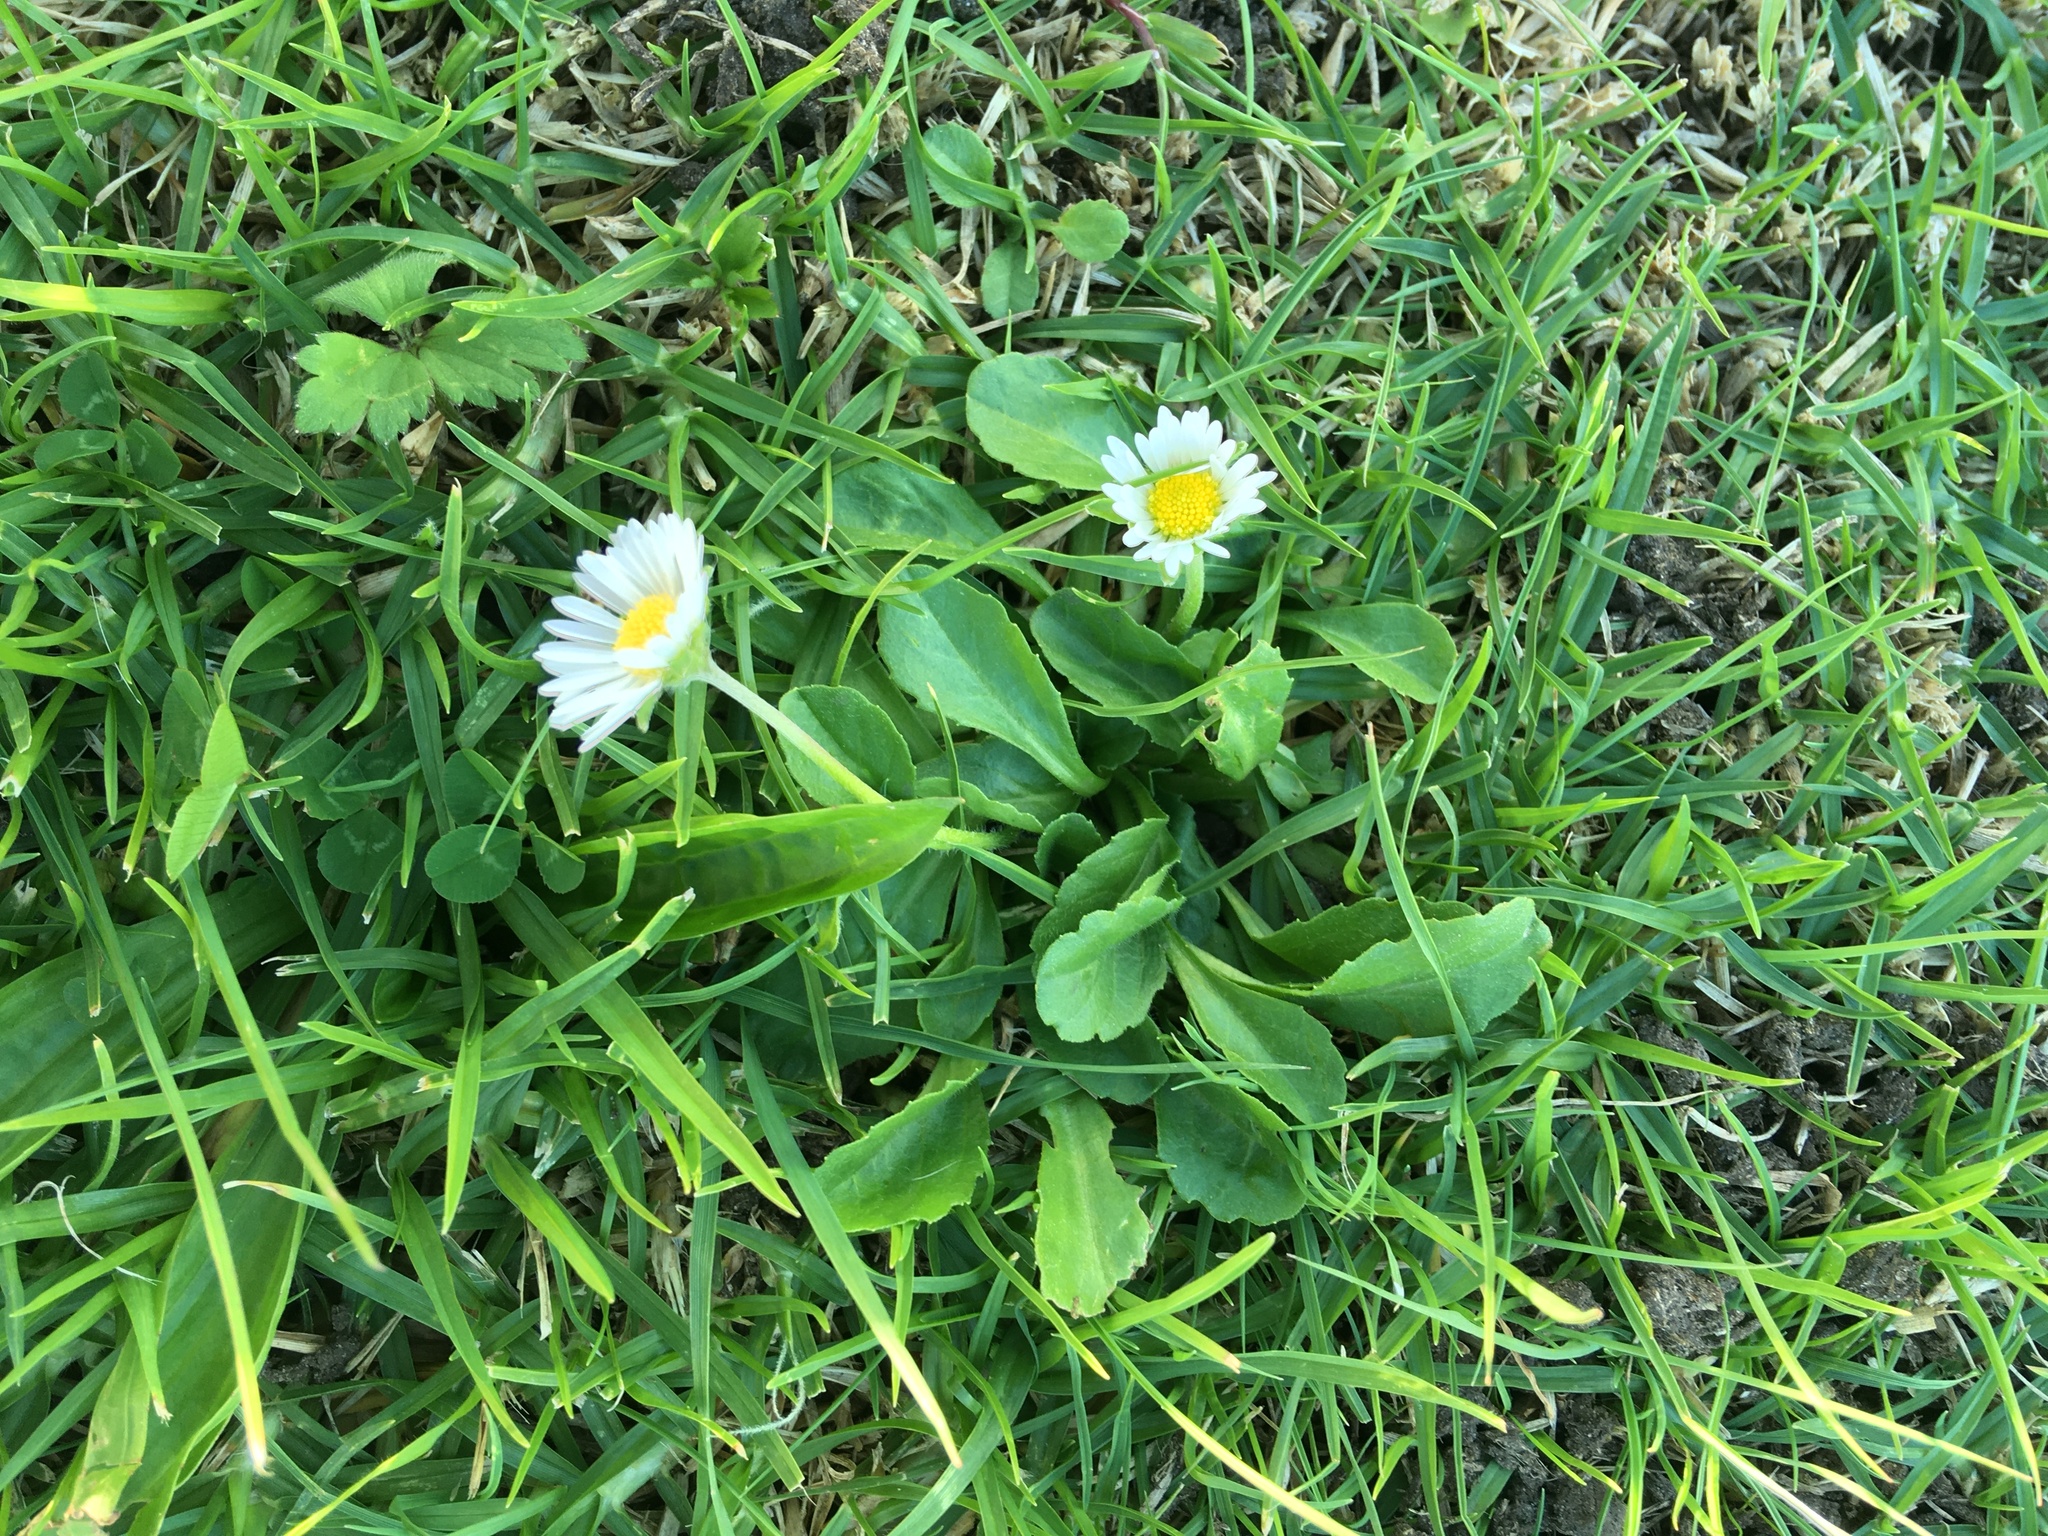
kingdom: Plantae
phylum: Tracheophyta
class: Magnoliopsida
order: Asterales
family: Asteraceae
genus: Bellis
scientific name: Bellis perennis
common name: Lawndaisy
